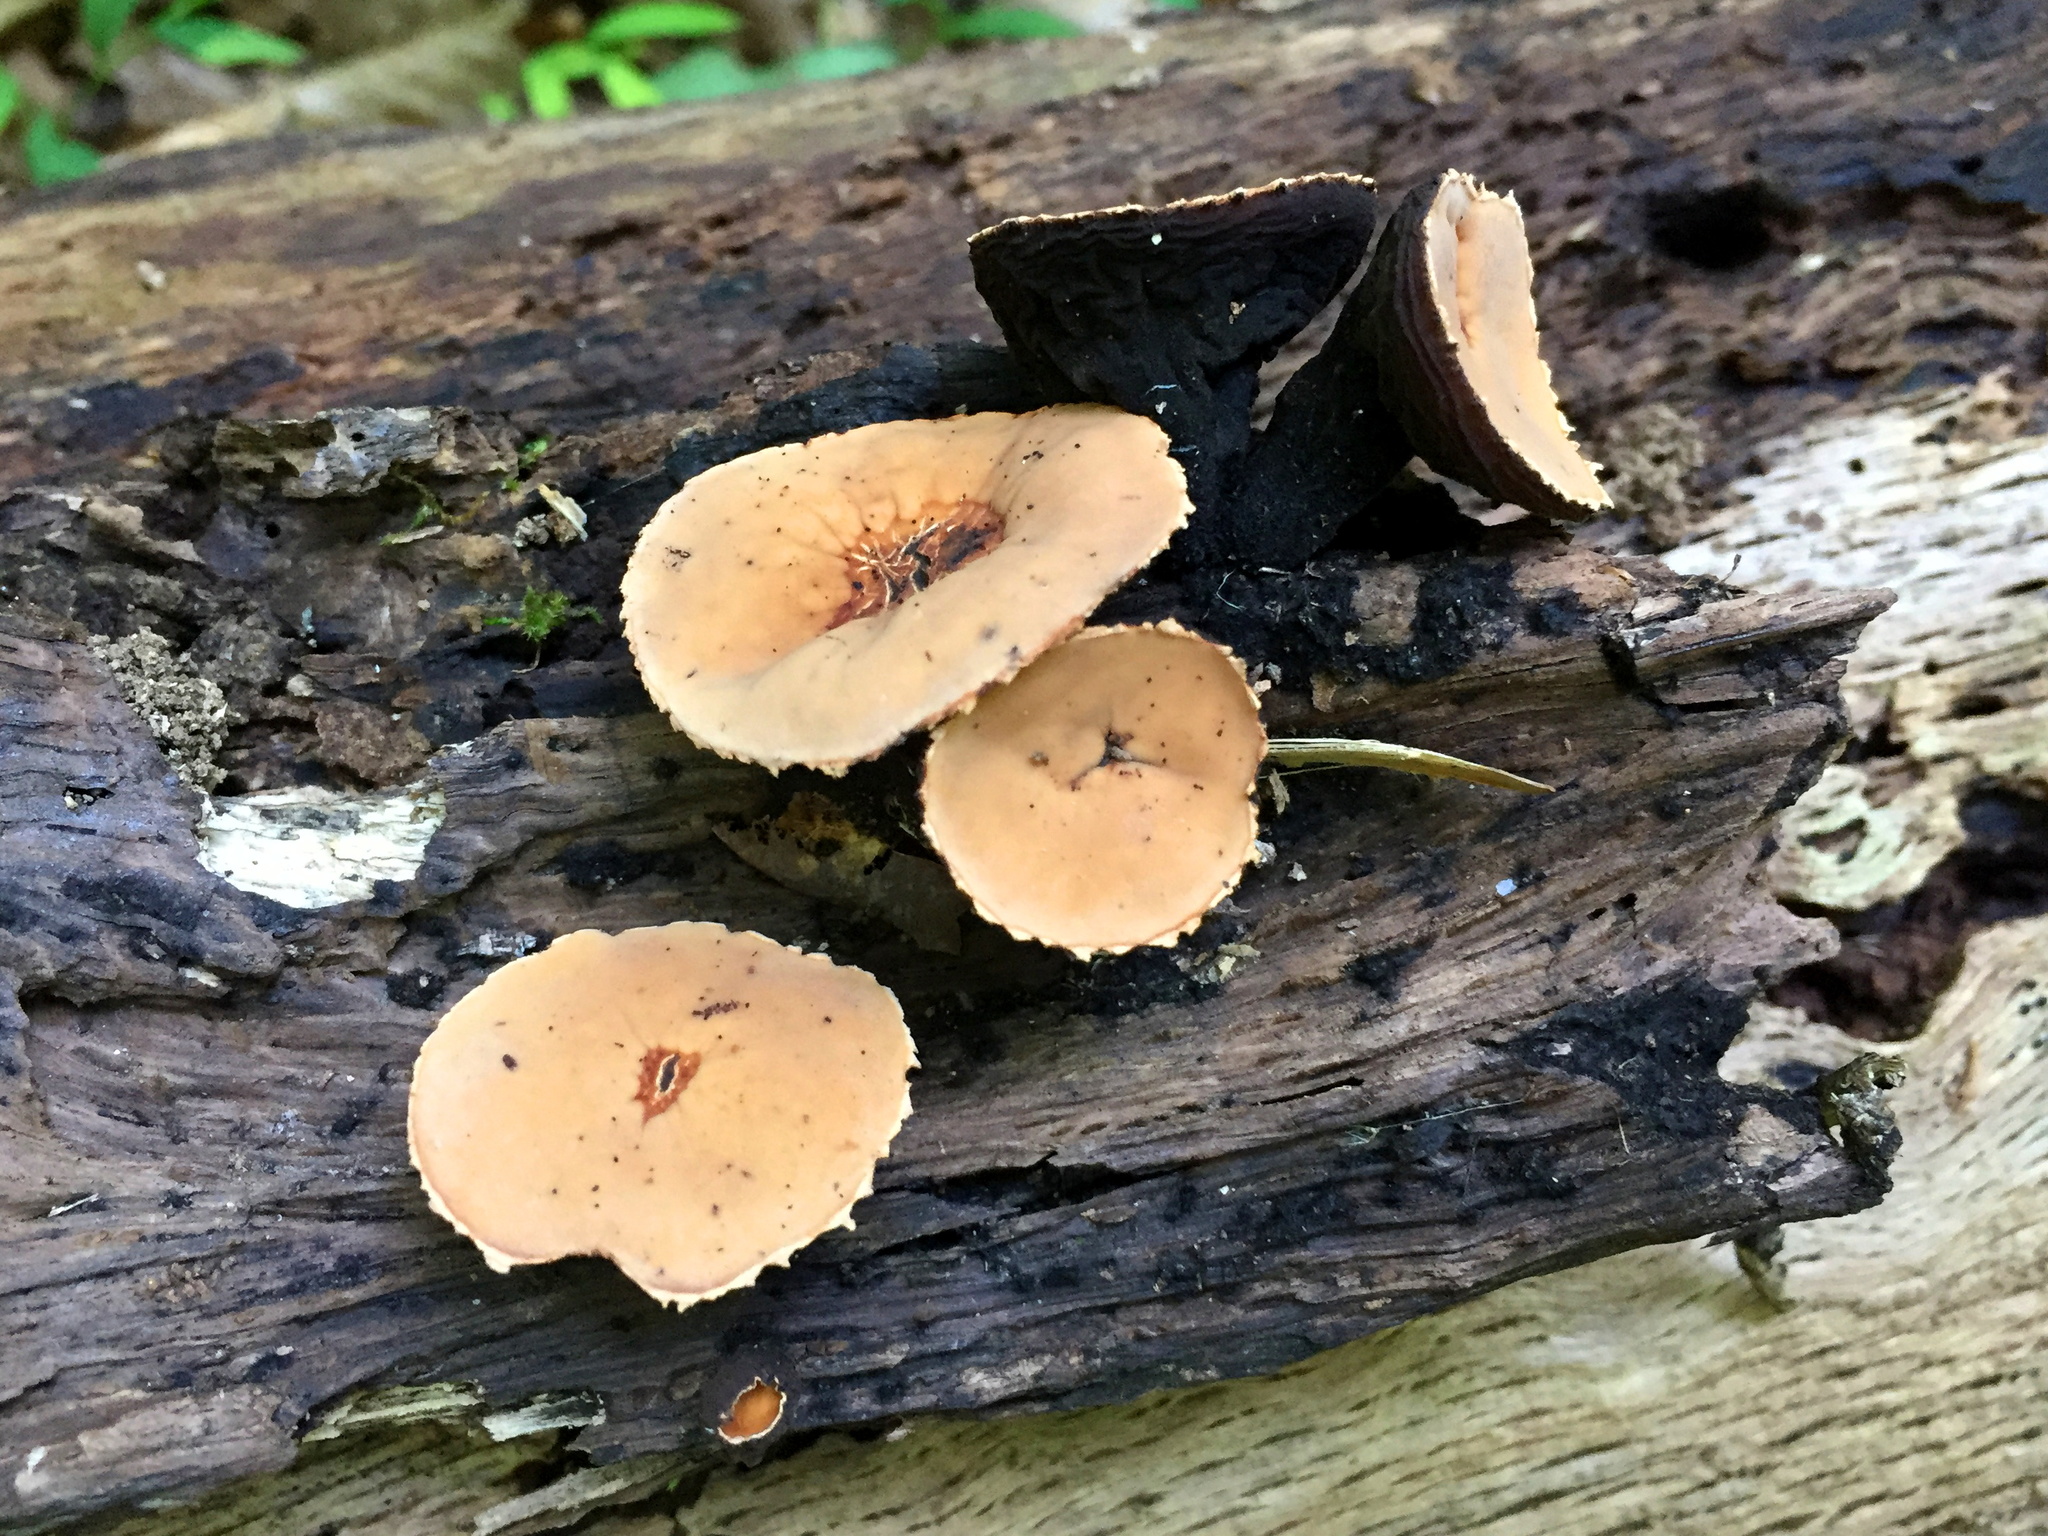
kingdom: Fungi
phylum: Ascomycota
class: Pezizomycetes
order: Pezizales
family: Sarcosomataceae
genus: Galiella
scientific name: Galiella rufa
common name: Hairy rubber cup
